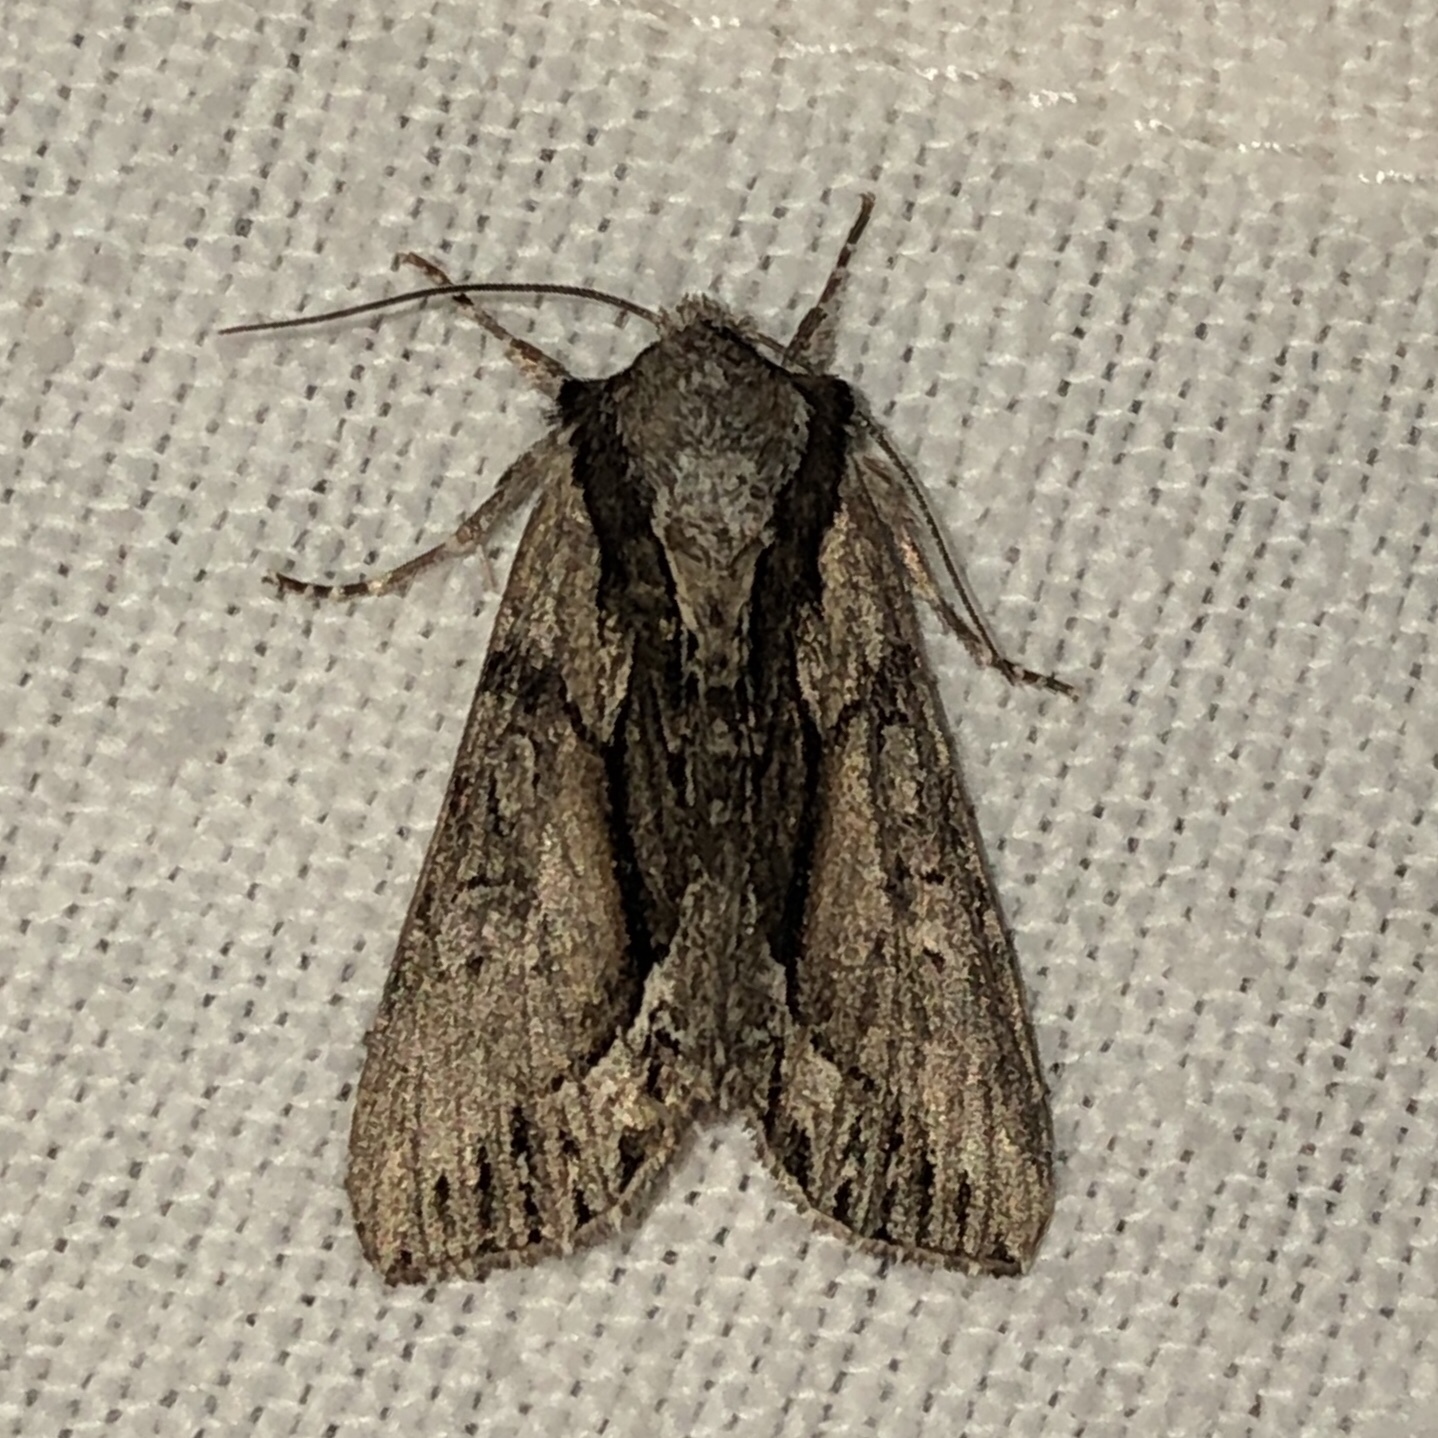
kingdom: Animalia
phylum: Arthropoda
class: Insecta
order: Lepidoptera
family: Noctuidae
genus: Hyppa
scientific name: Hyppa xylinoides
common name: Common hyppa moth
